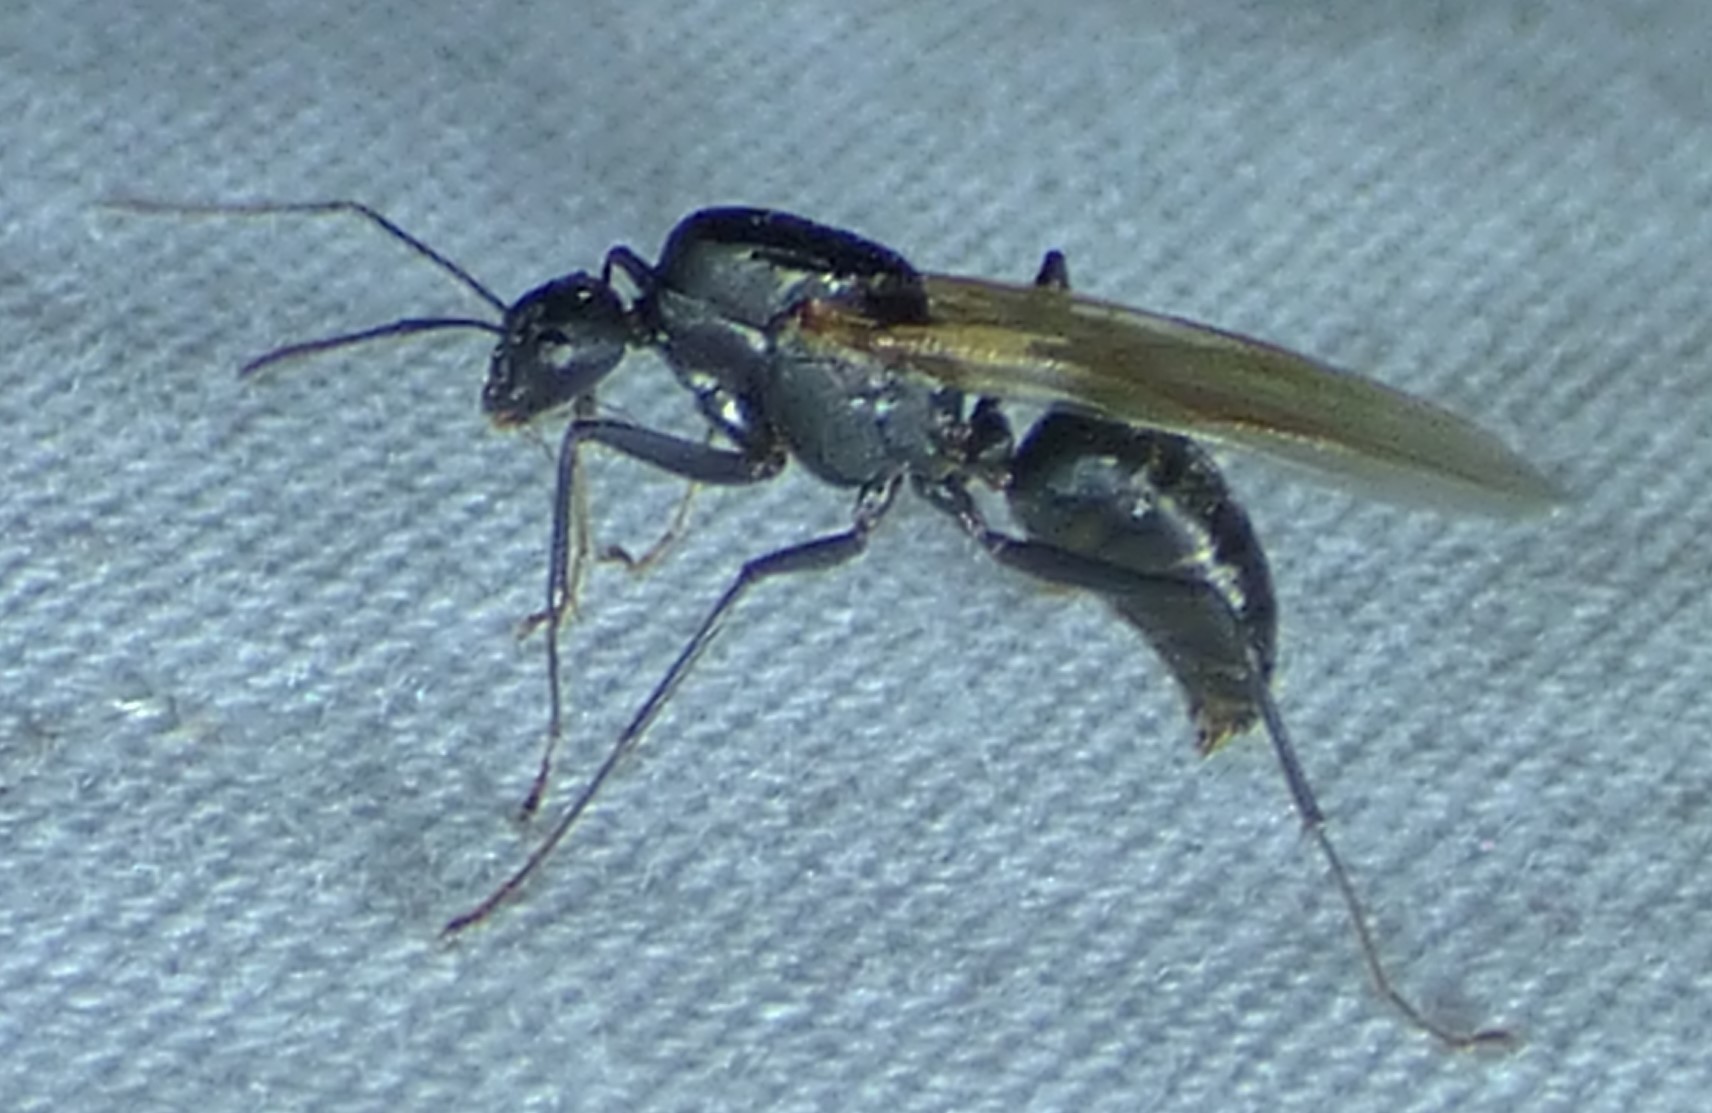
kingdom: Animalia
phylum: Arthropoda
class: Insecta
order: Hymenoptera
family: Formicidae
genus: Camponotus
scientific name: Camponotus pennsylvanicus
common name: Black carpenter ant
